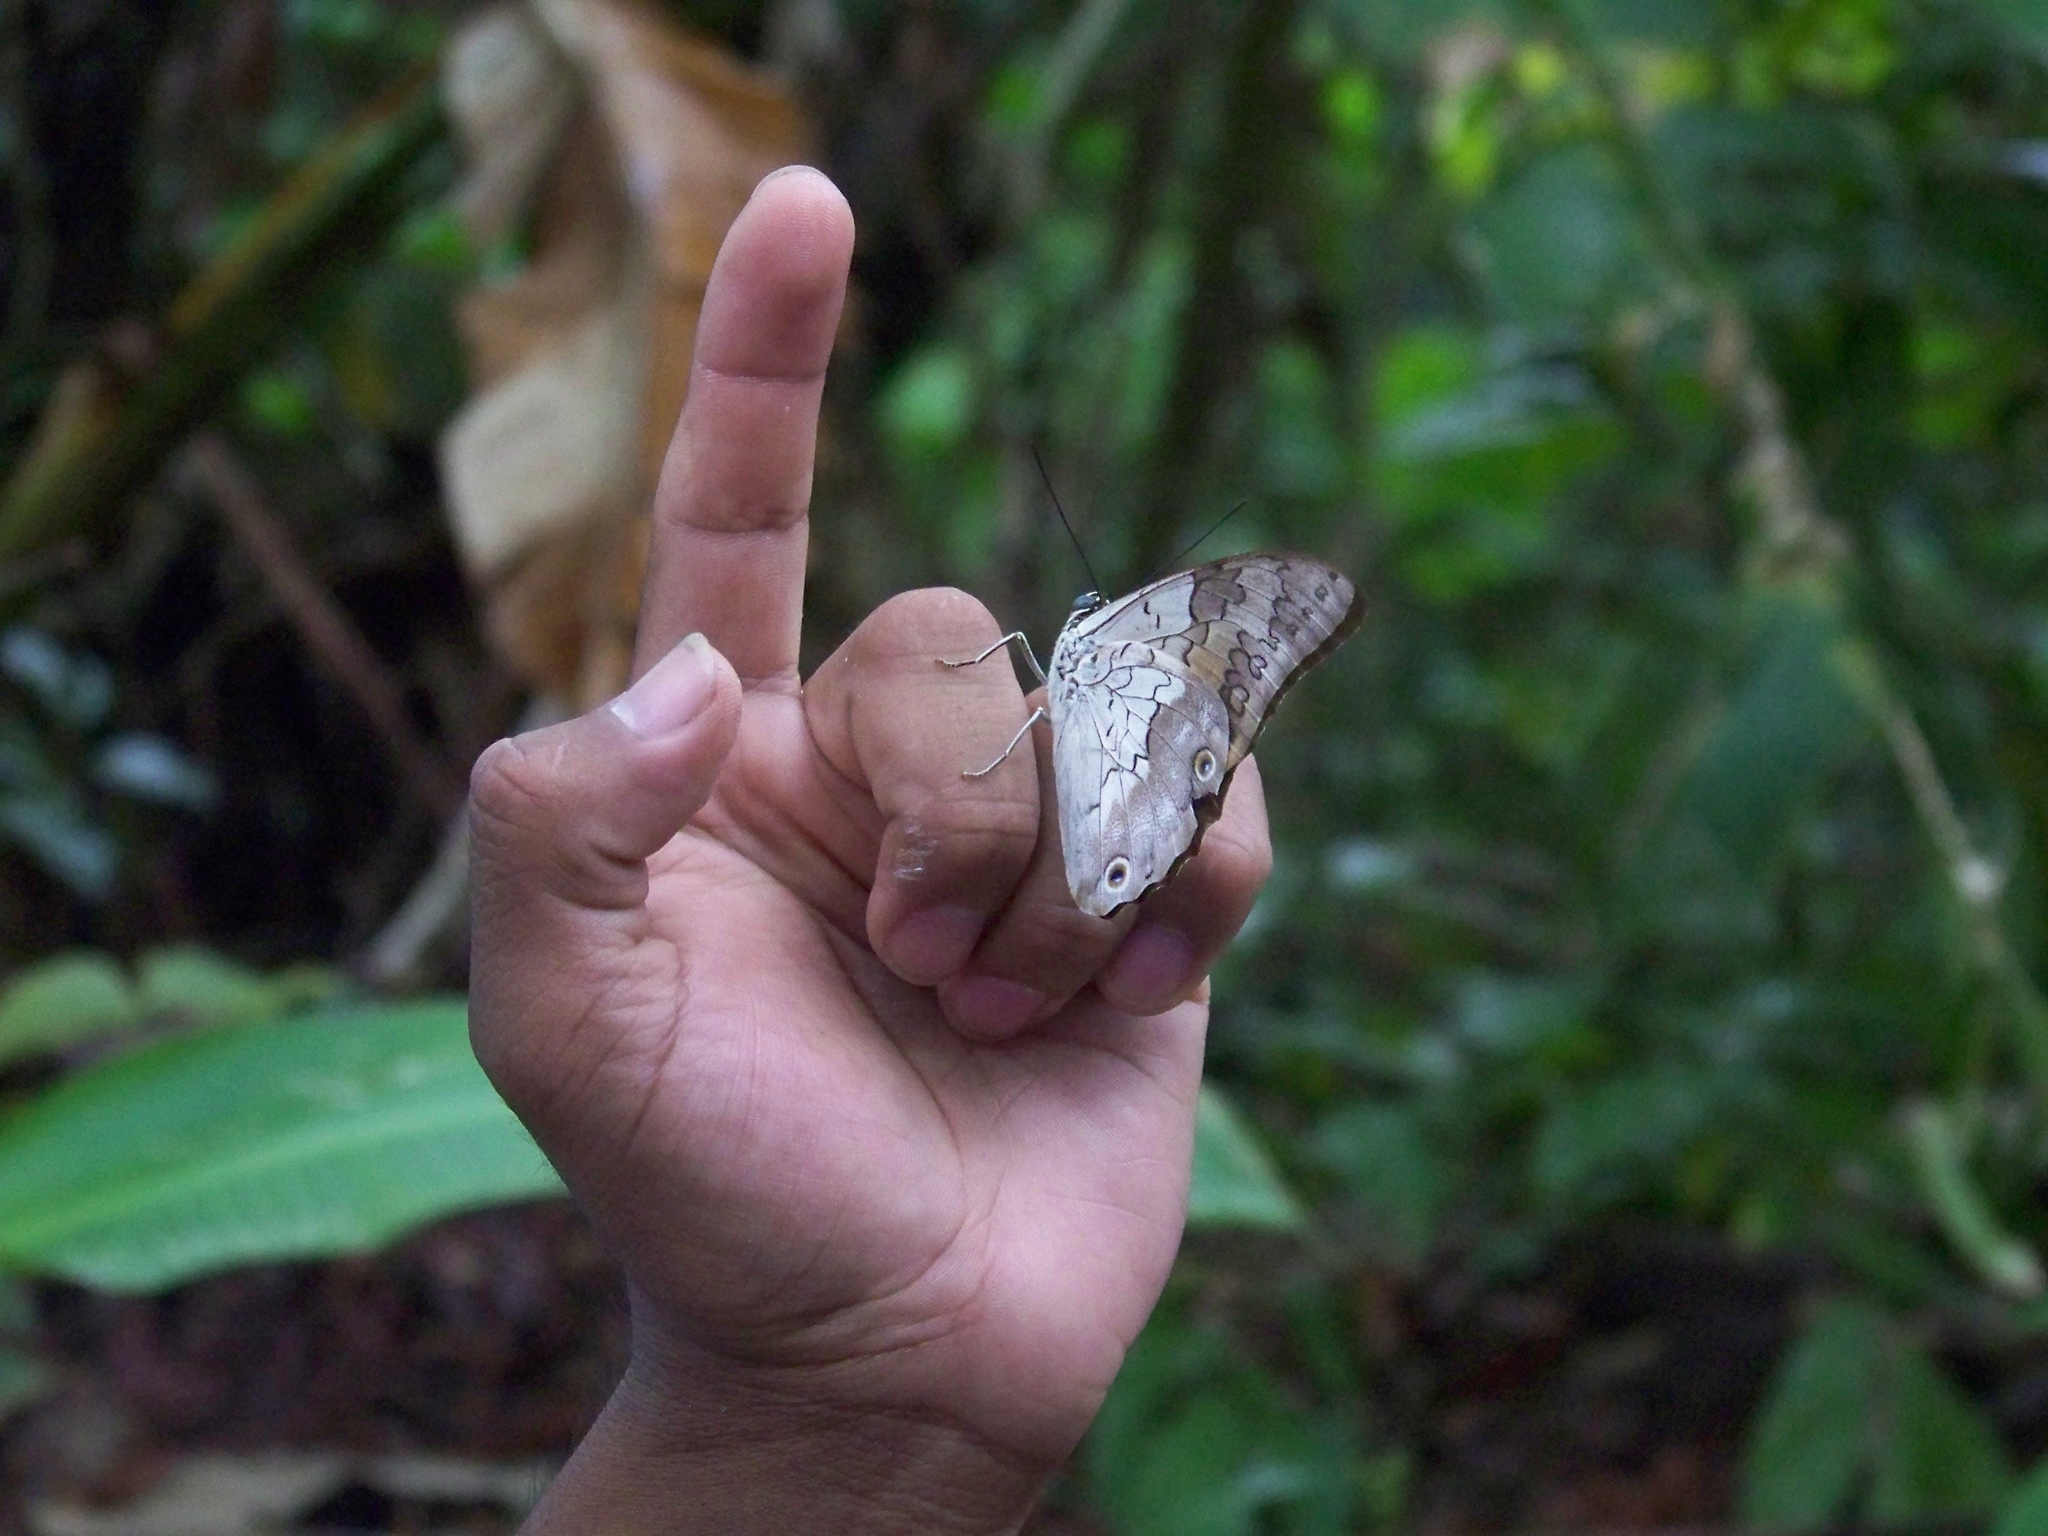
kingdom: Animalia
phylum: Arthropoda
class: Insecta
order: Lepidoptera
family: Nymphalidae
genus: Prepona
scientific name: Prepona laertes
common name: Butterfly
